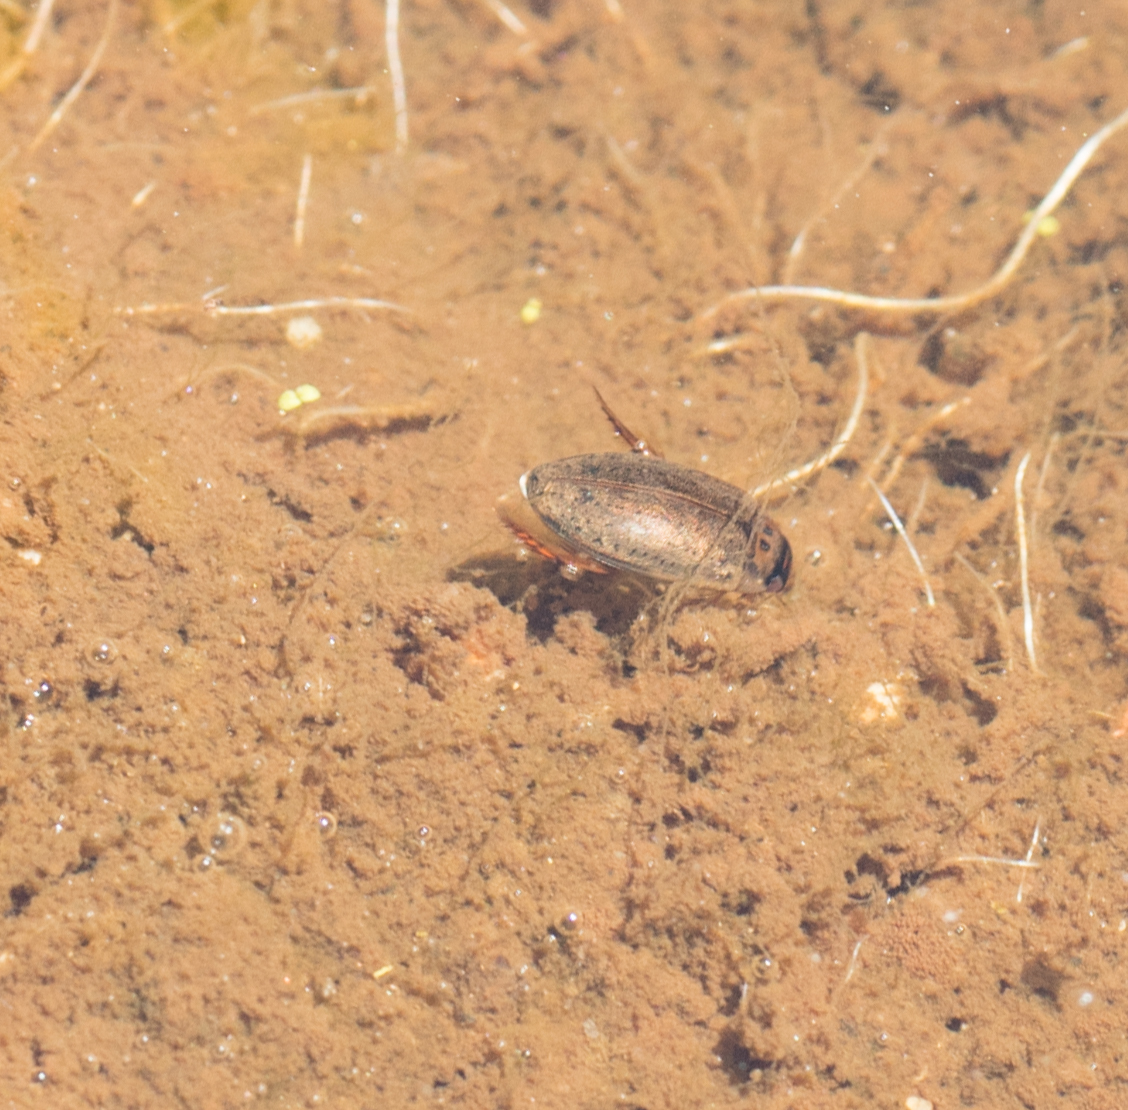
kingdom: Animalia
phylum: Arthropoda
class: Insecta
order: Coleoptera
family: Dytiscidae
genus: Rhantus
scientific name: Rhantus
